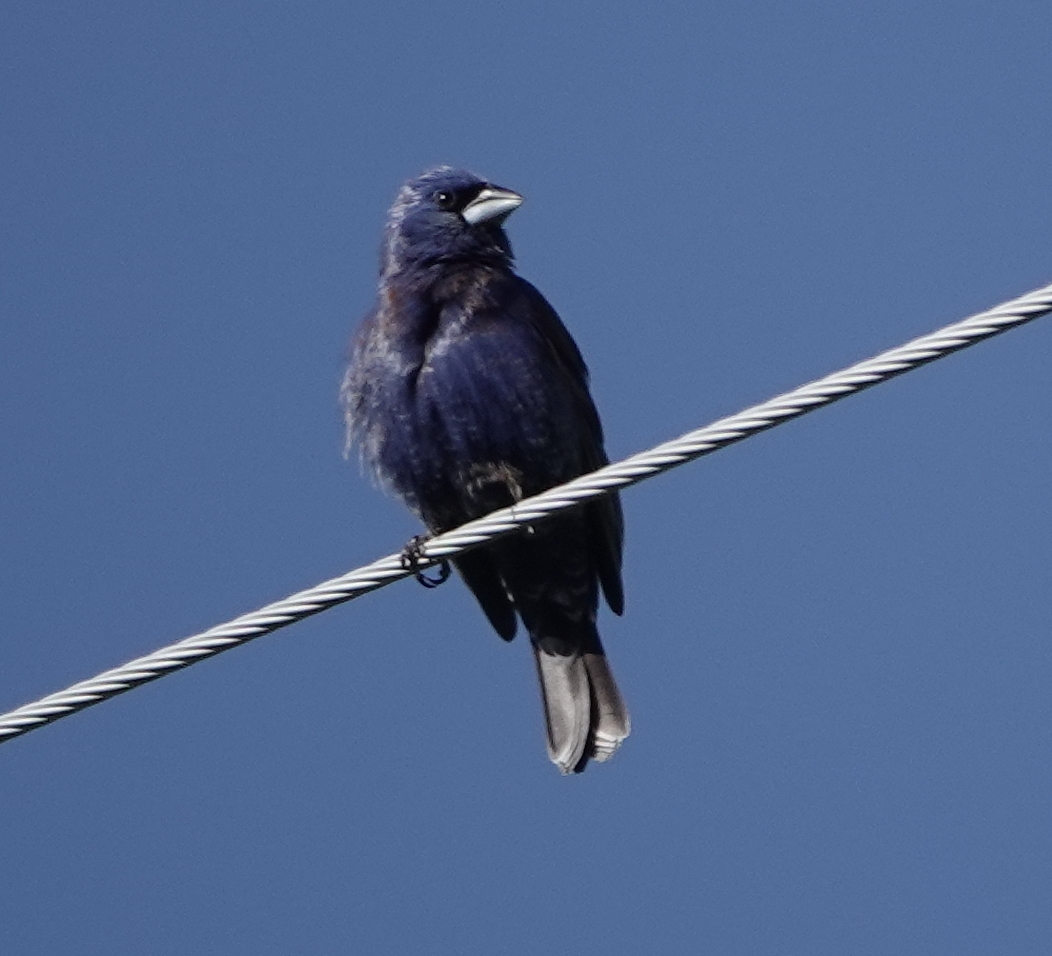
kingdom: Animalia
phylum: Chordata
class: Aves
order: Passeriformes
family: Cardinalidae
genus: Passerina
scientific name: Passerina caerulea
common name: Blue grosbeak
